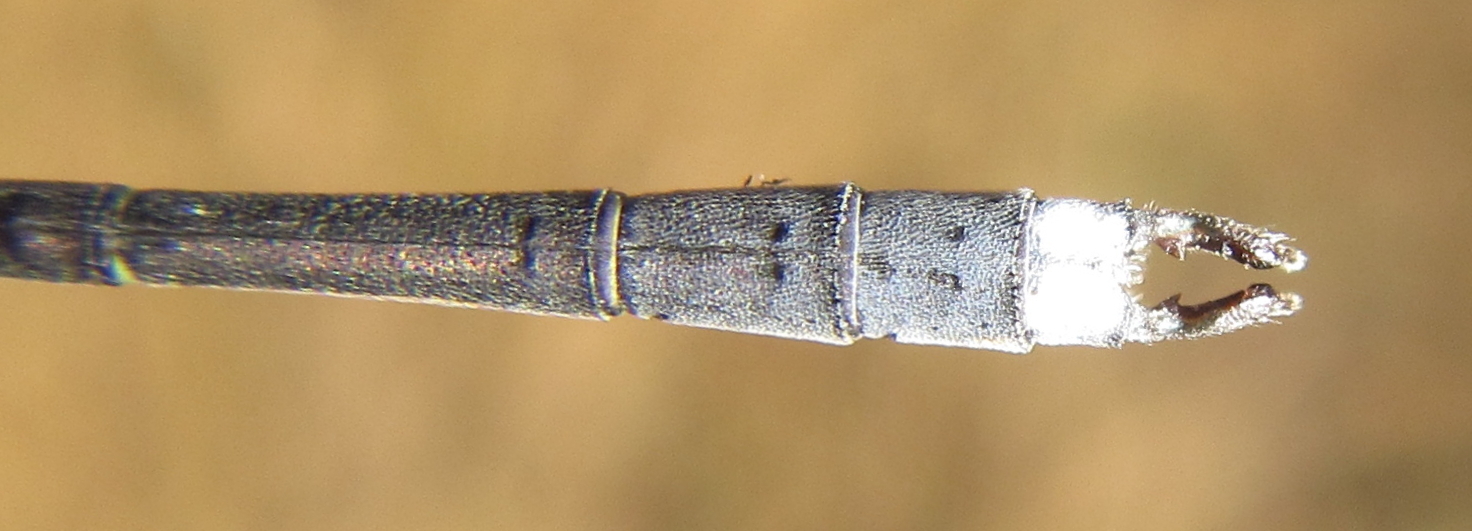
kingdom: Animalia
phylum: Arthropoda
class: Insecta
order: Odonata
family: Lestidae
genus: Lestes
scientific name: Lestes pinheyi
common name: Pinhey's spreadwing
